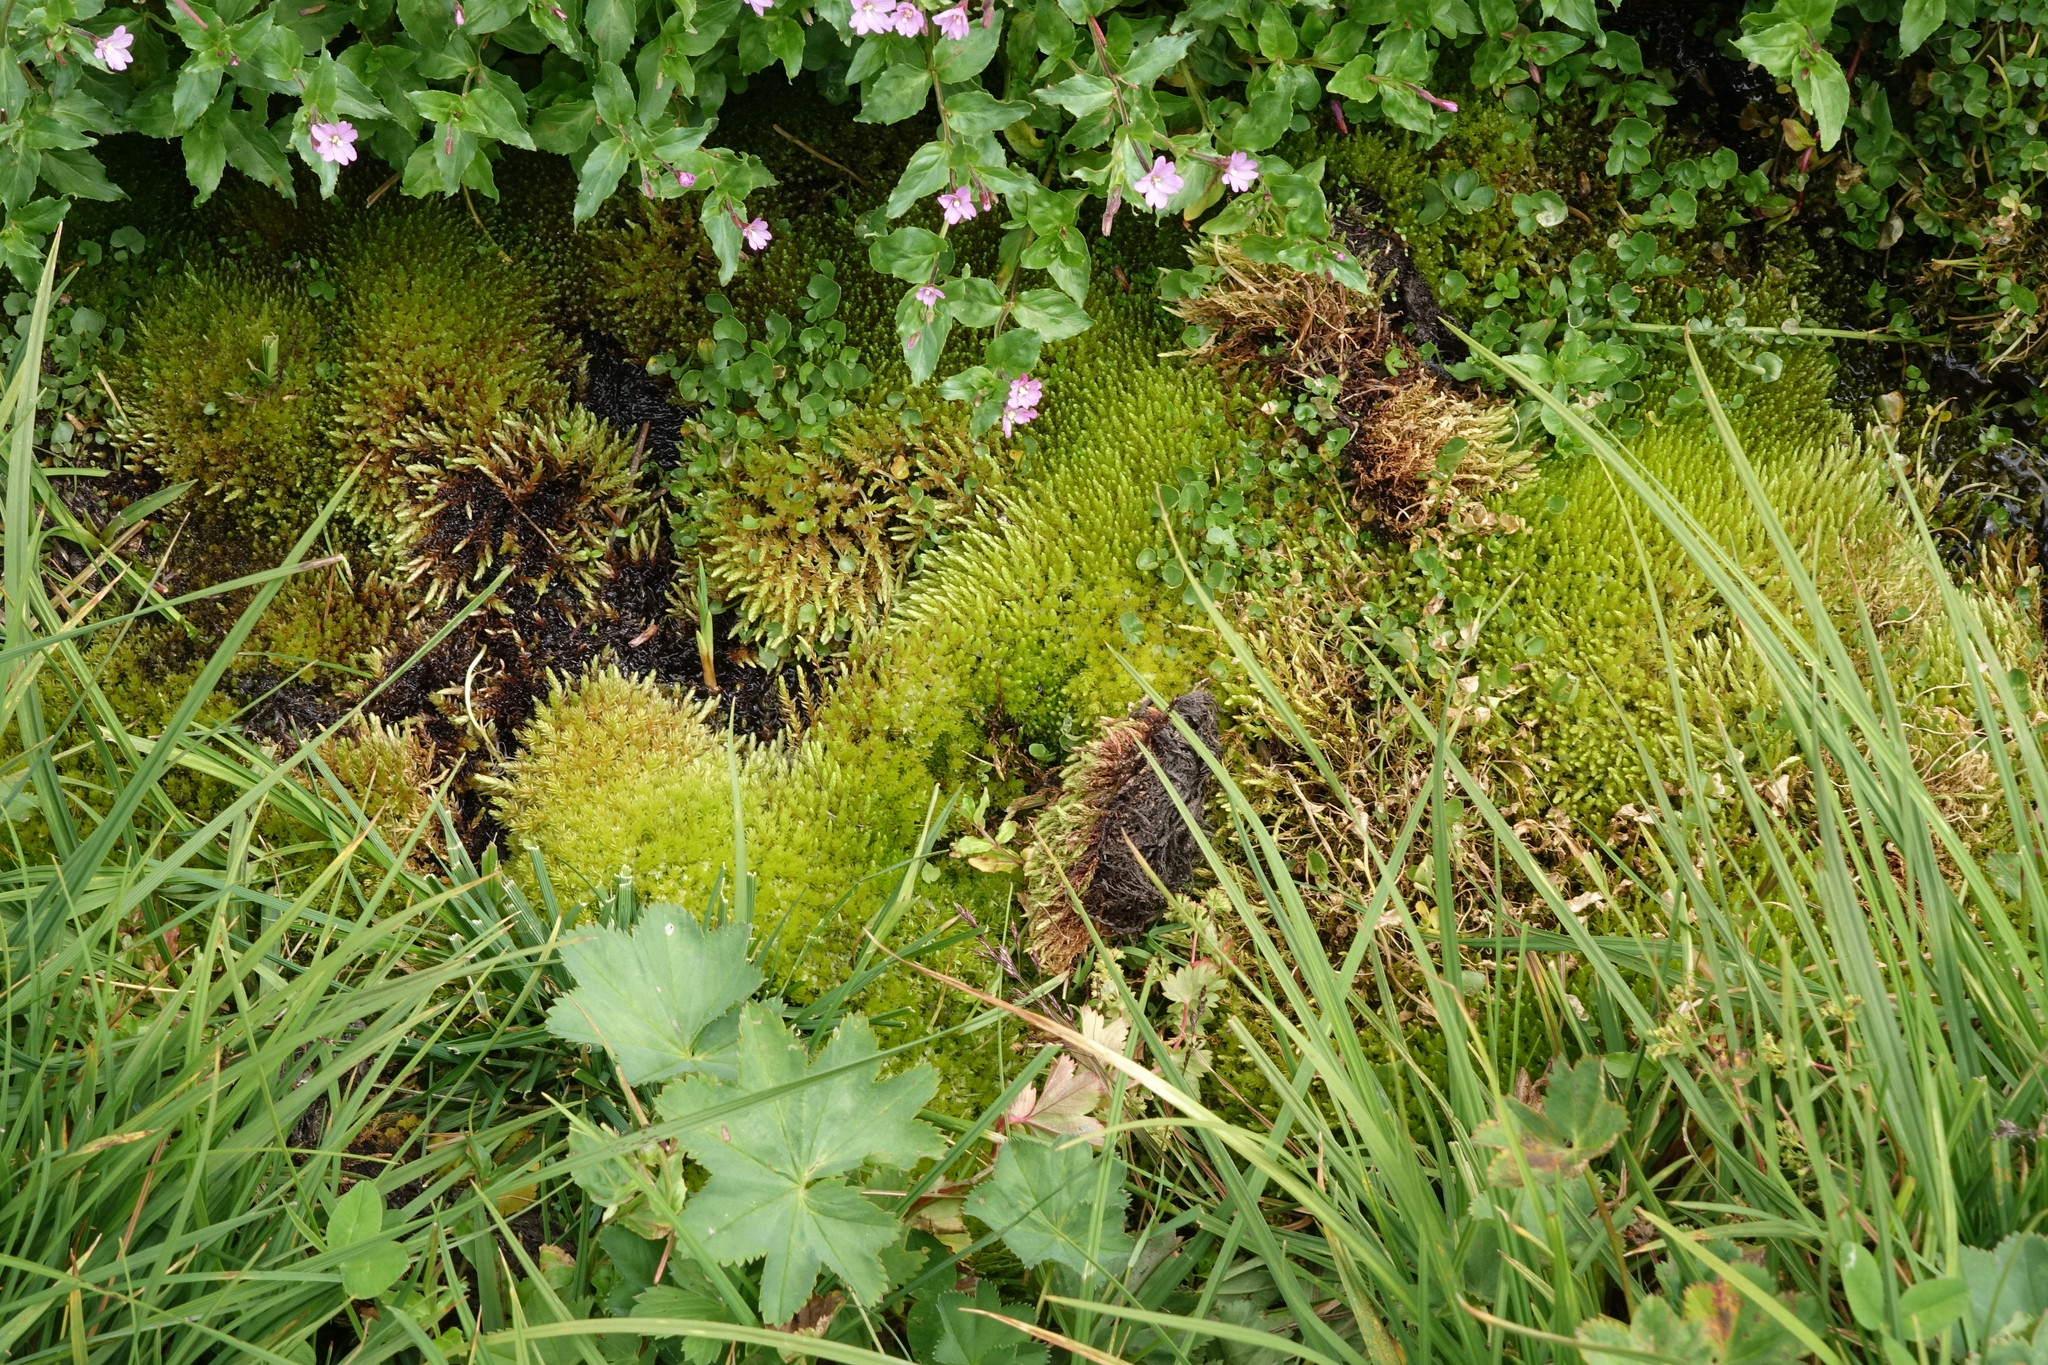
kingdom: Plantae
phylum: Bryophyta
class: Bryopsida
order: Bryales
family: Bryaceae
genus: Ptychostomum
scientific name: Ptychostomum schleicheri
